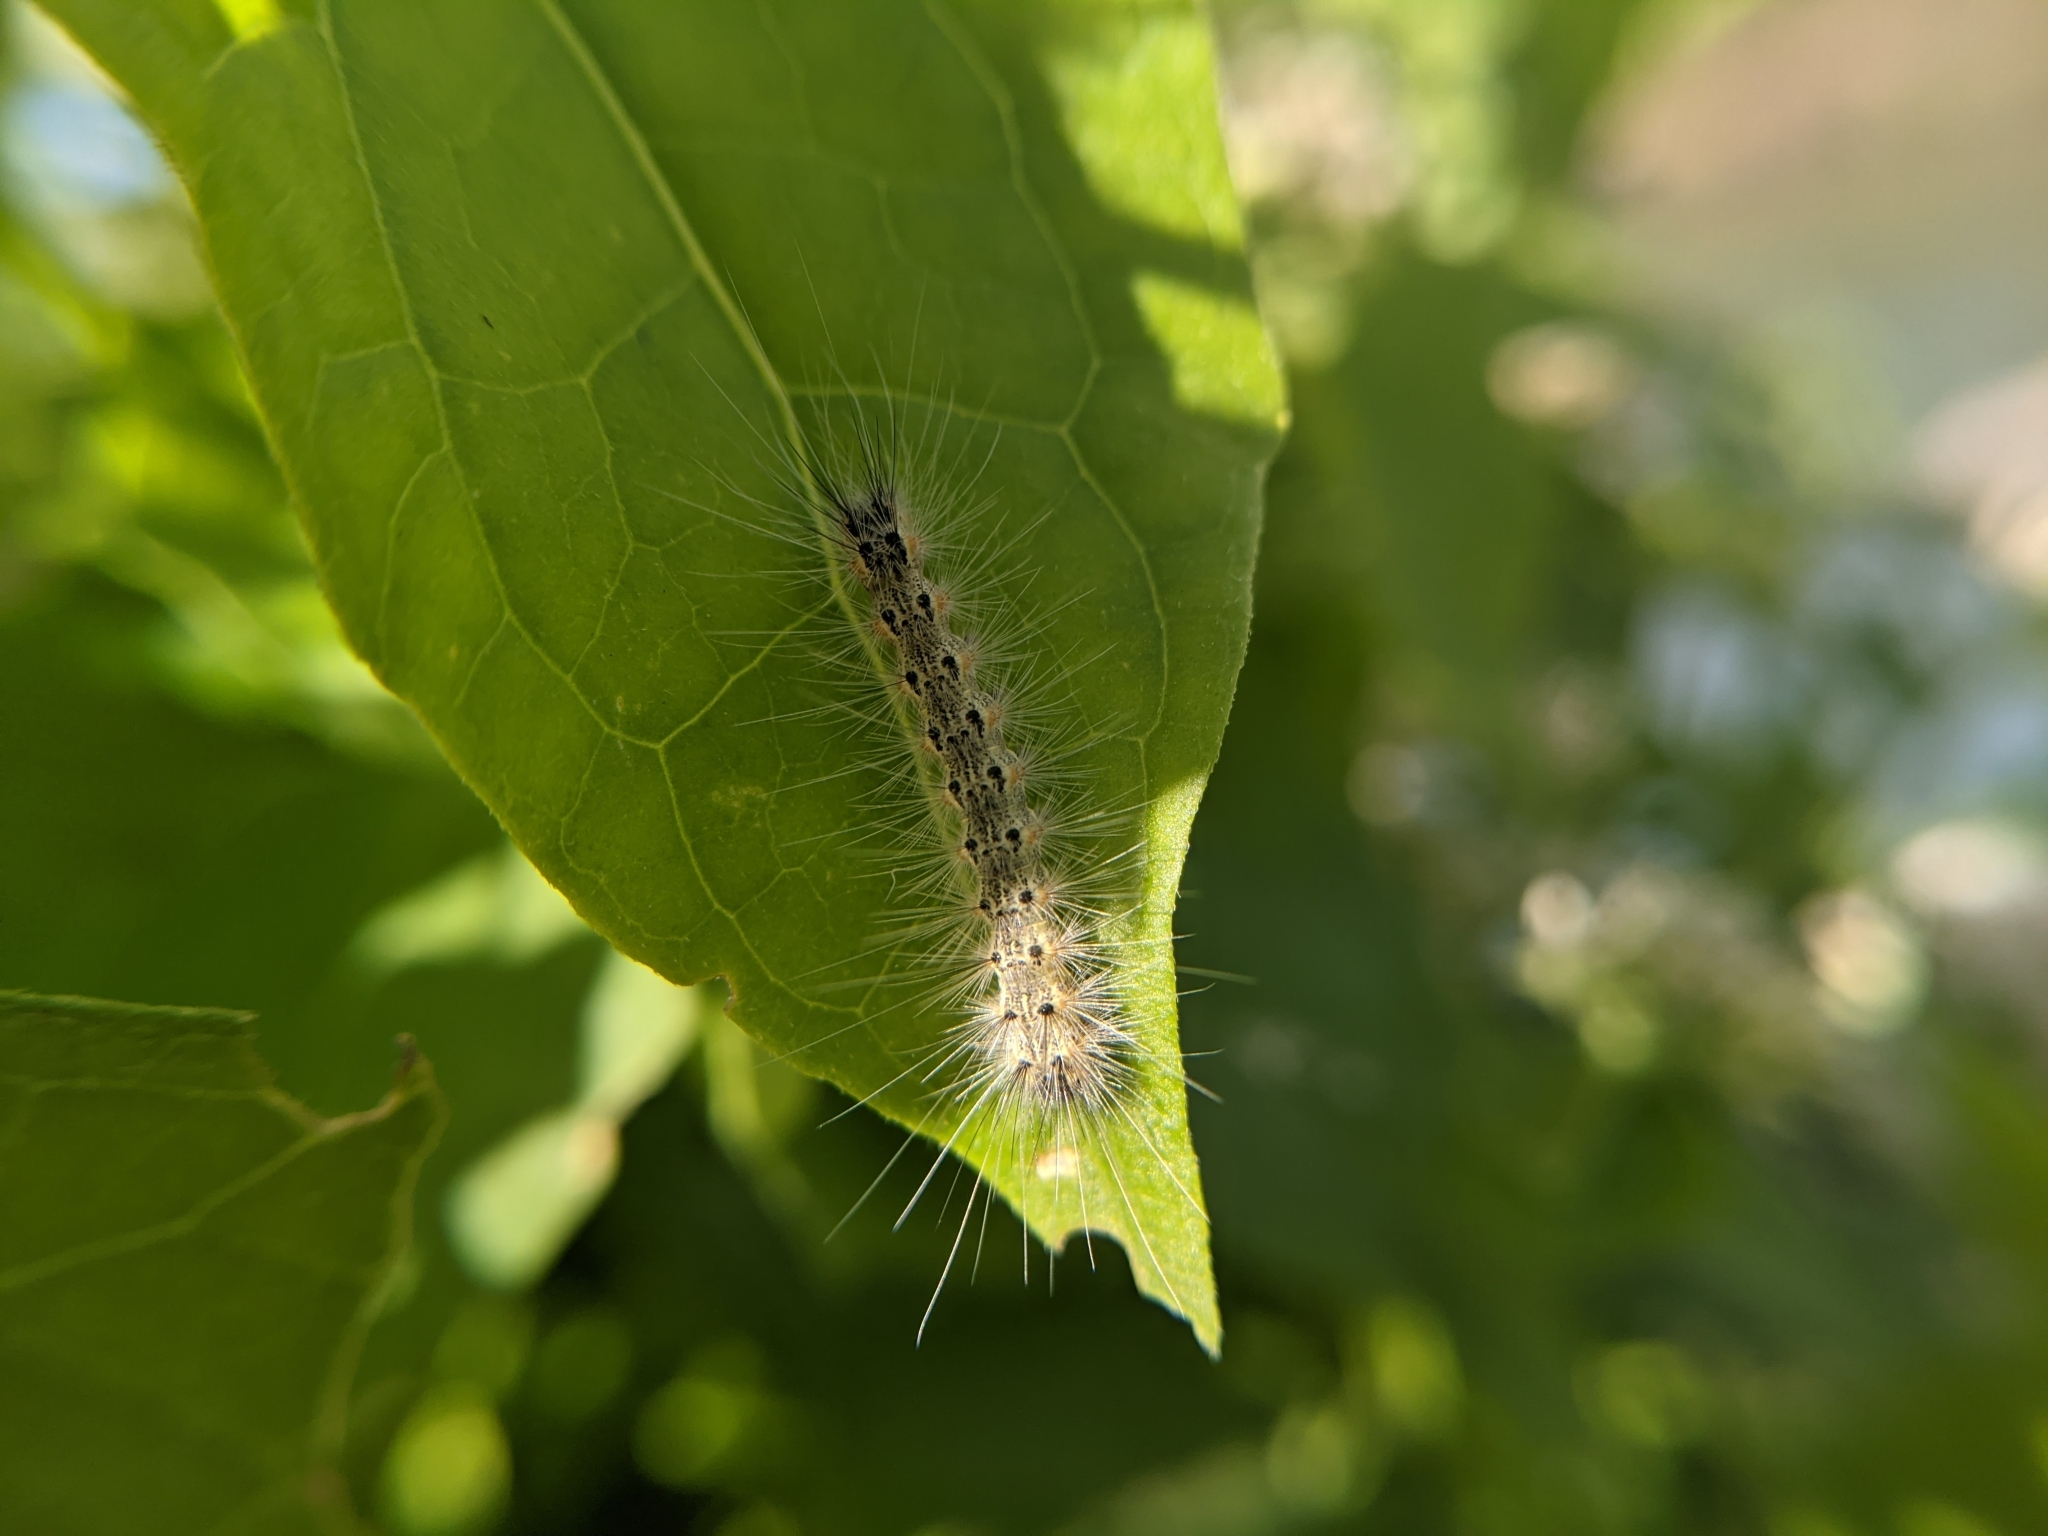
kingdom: Animalia
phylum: Arthropoda
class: Insecta
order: Lepidoptera
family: Erebidae
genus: Hyphantria
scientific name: Hyphantria cunea
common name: American white moth
